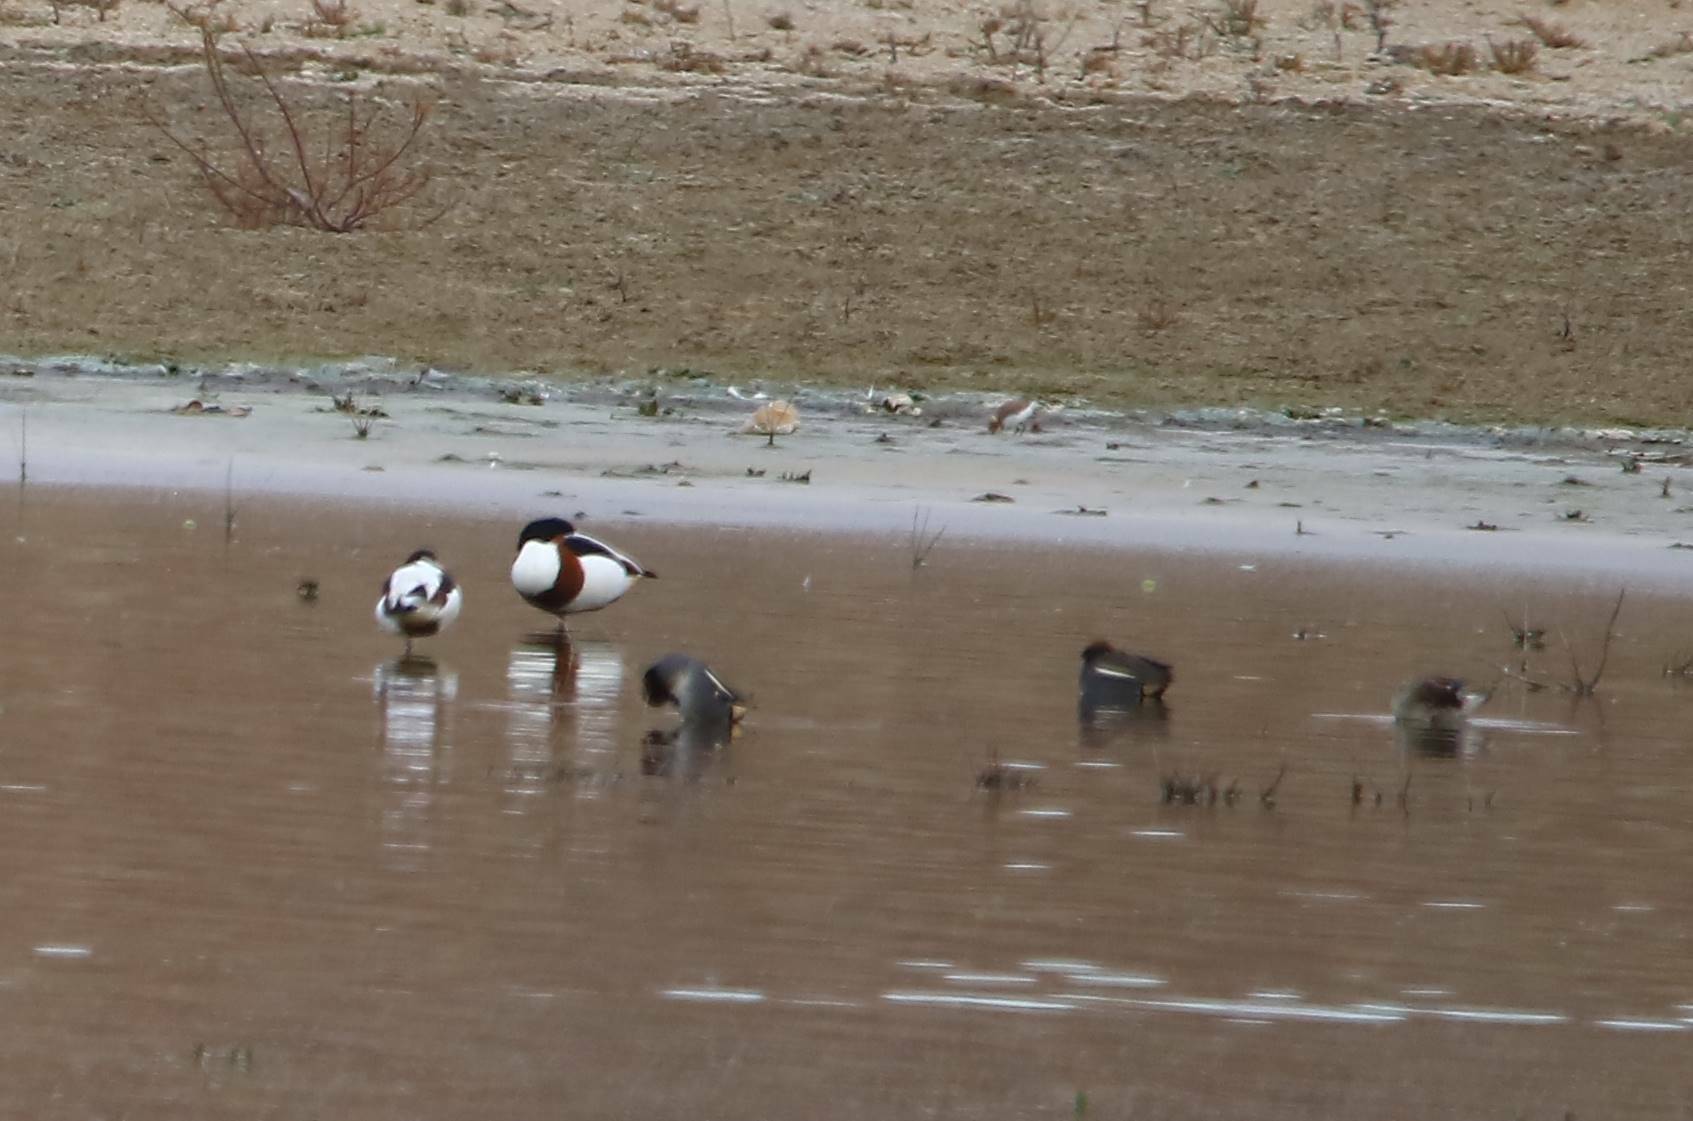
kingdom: Animalia
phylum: Chordata
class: Aves
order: Anseriformes
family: Anatidae
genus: Tadorna
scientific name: Tadorna tadorna
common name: Common shelduck
